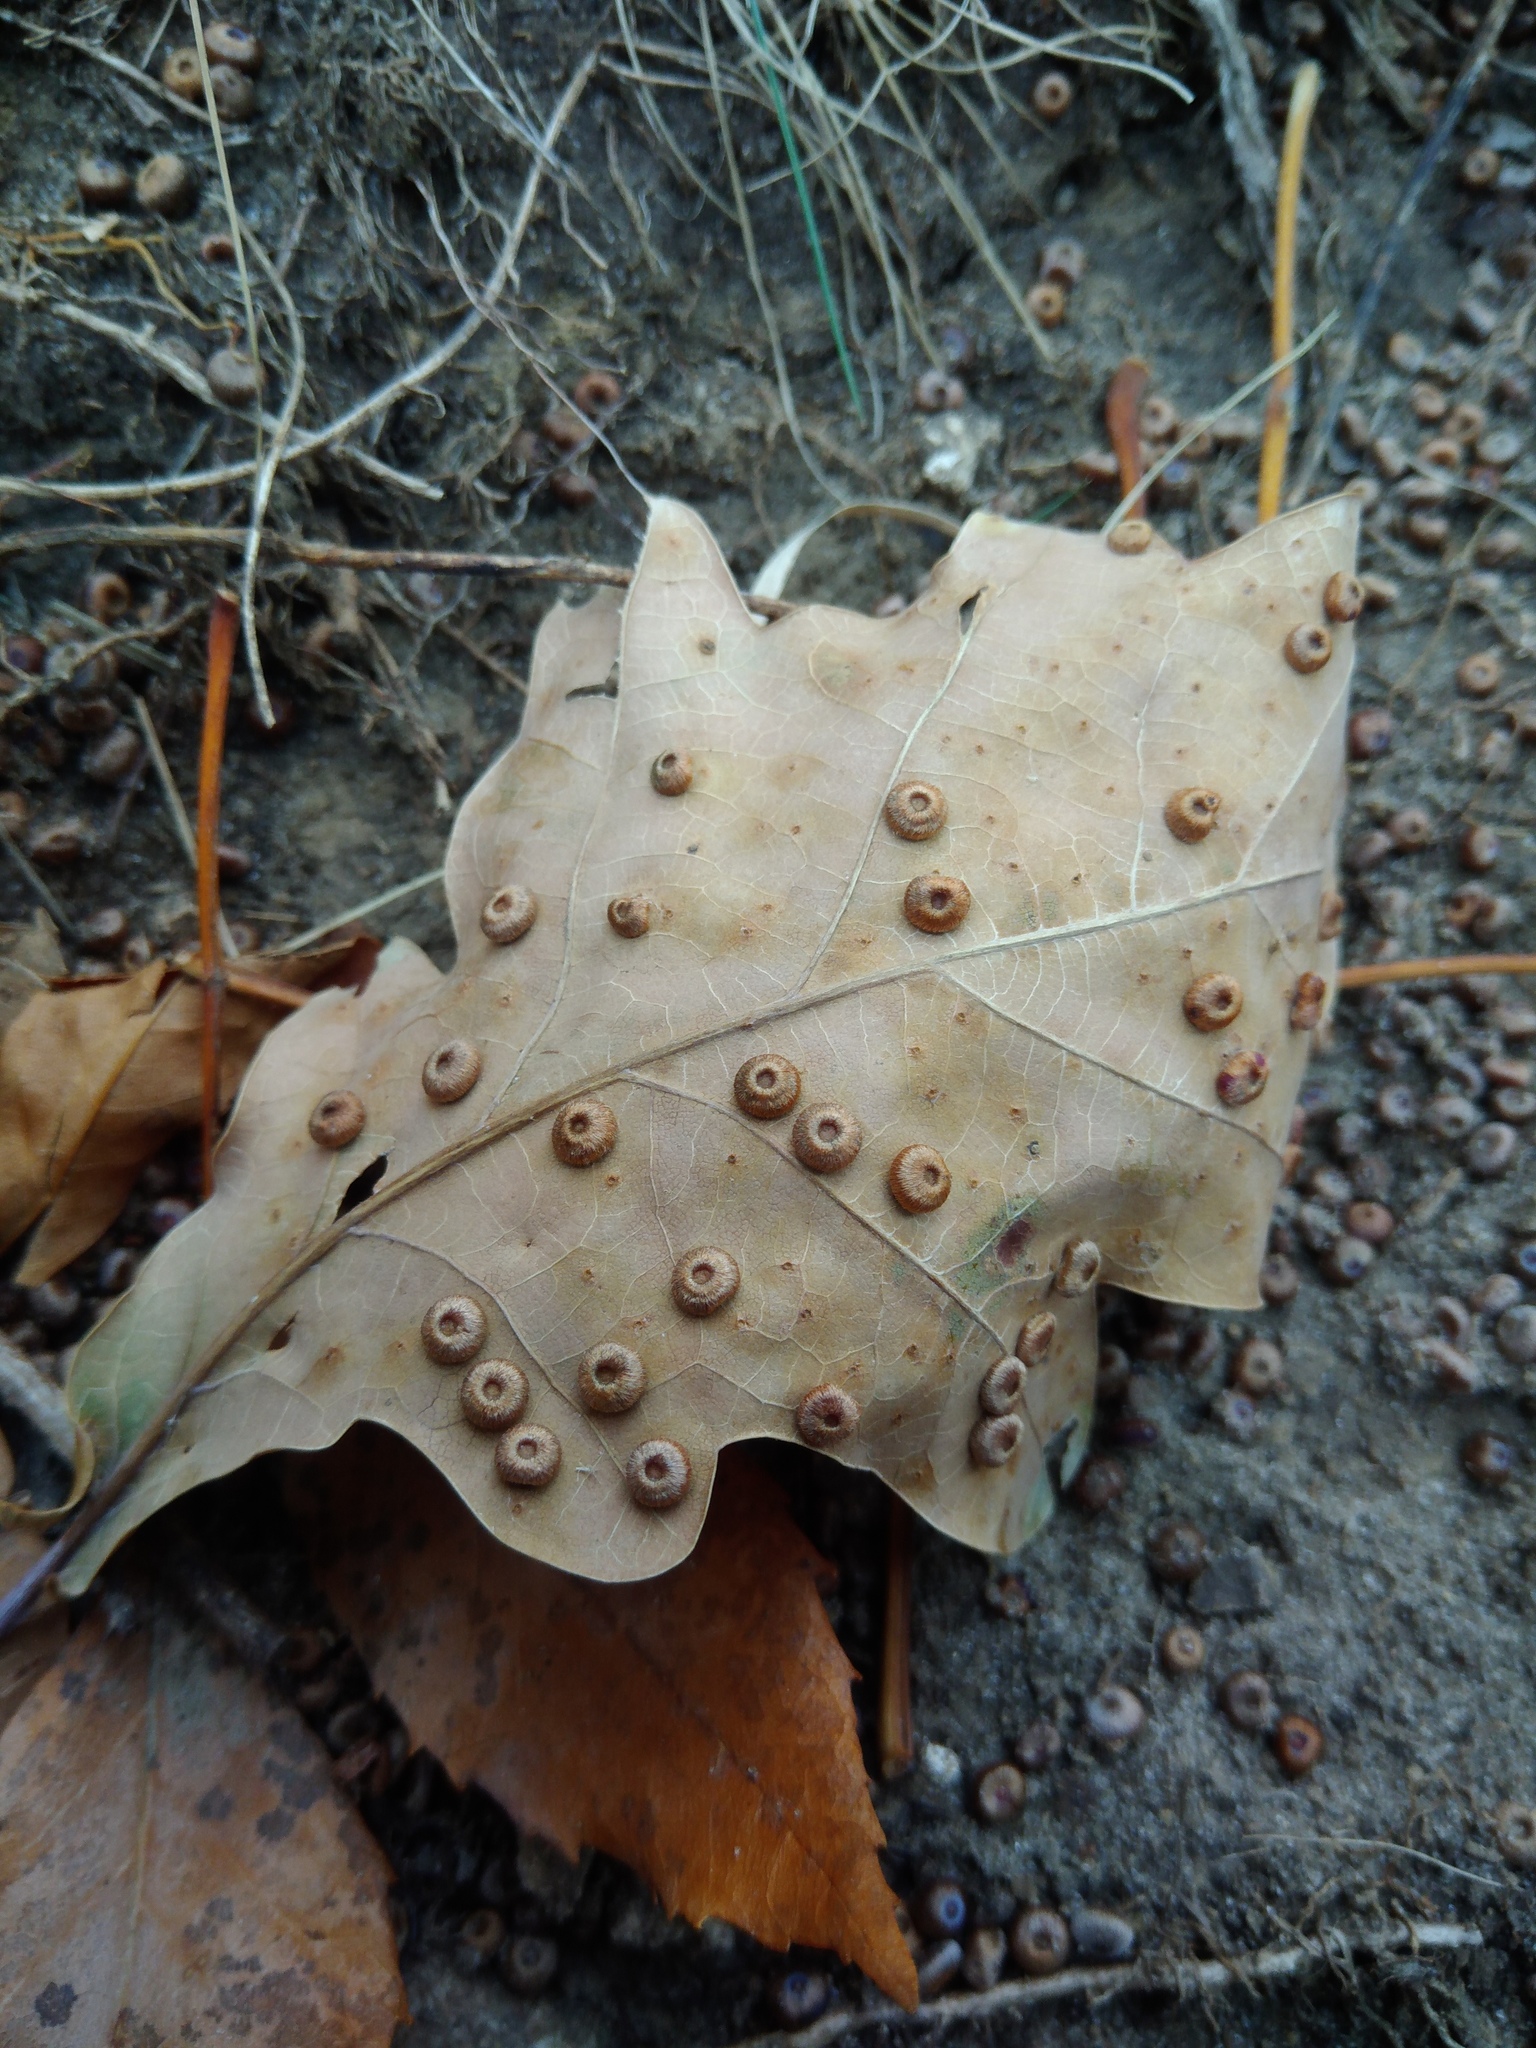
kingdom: Animalia
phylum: Arthropoda
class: Insecta
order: Hymenoptera
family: Cynipidae
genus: Neuroterus
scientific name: Neuroterus numismalis
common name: Silk-button spangle gall
